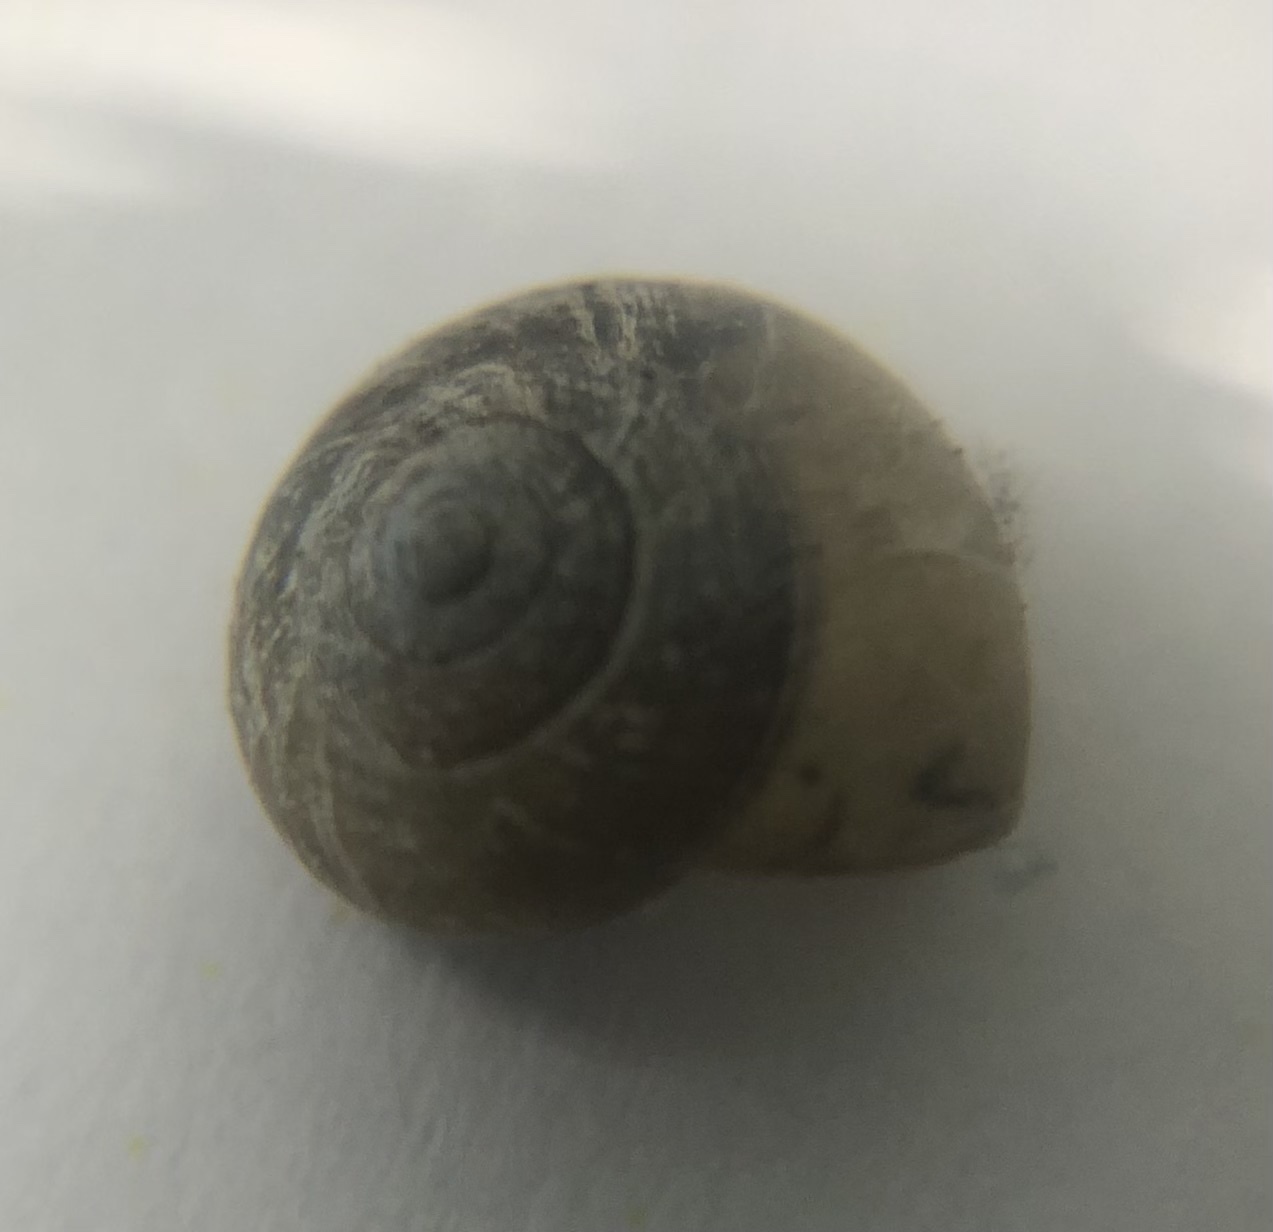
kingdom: Animalia
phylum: Mollusca
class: Gastropoda
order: Cycloneritida
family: Helicinidae
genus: Helicina
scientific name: Helicina orbiculata
